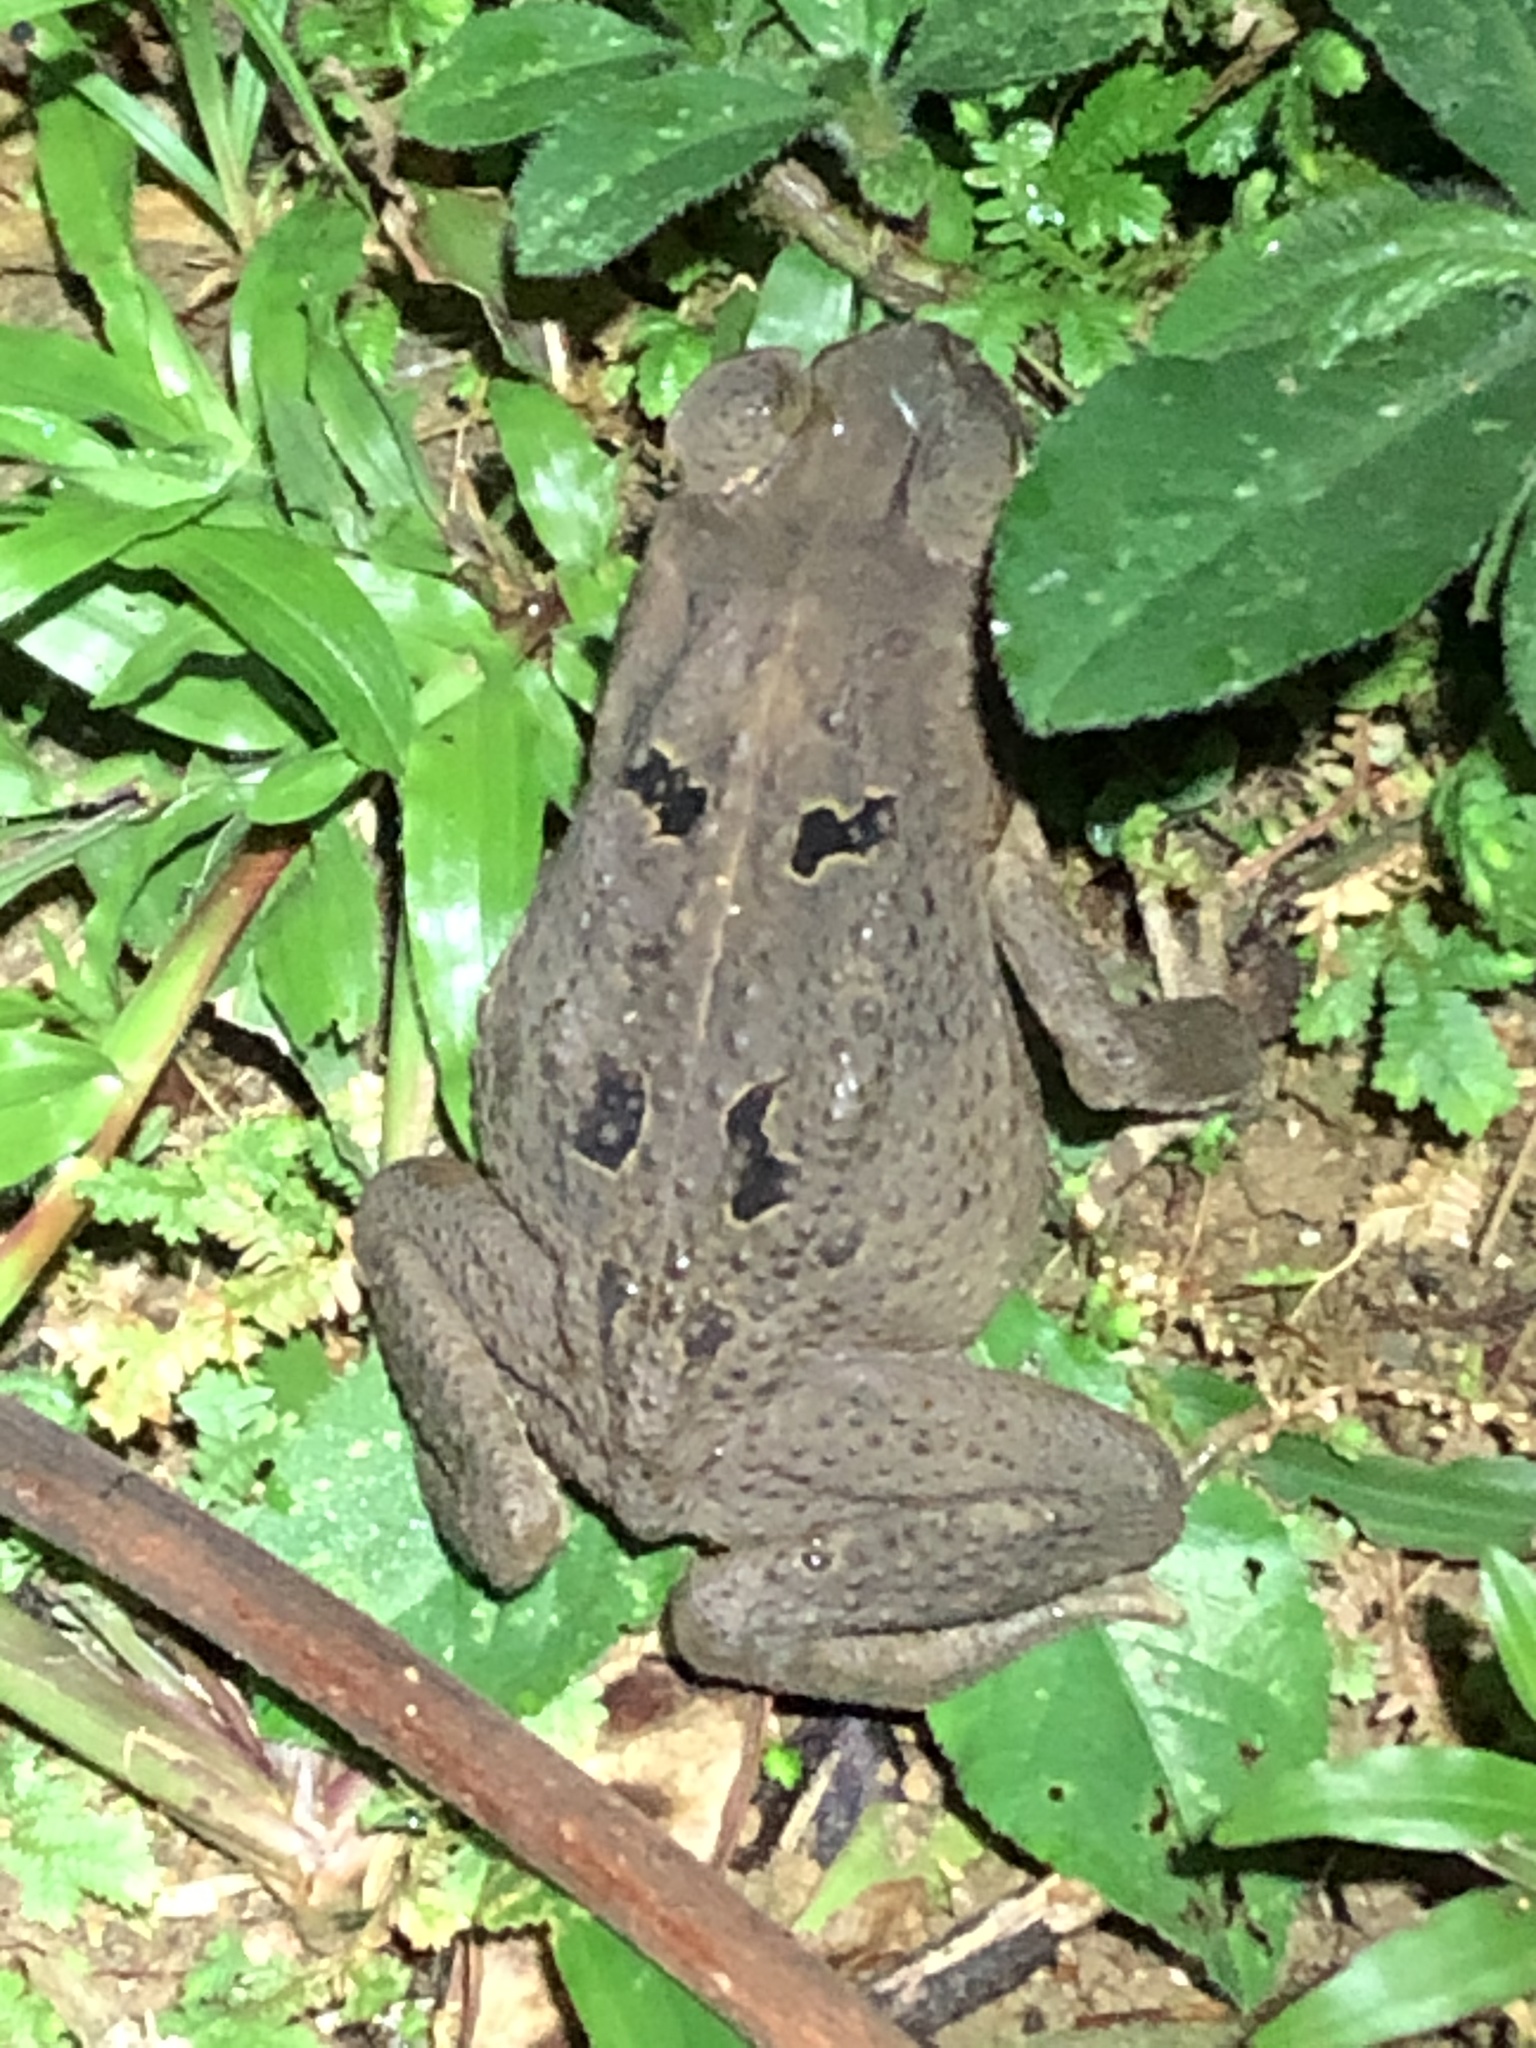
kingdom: Animalia
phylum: Chordata
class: Amphibia
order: Anura
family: Bufonidae
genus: Rhinella
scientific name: Rhinella marina
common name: Cane toad
